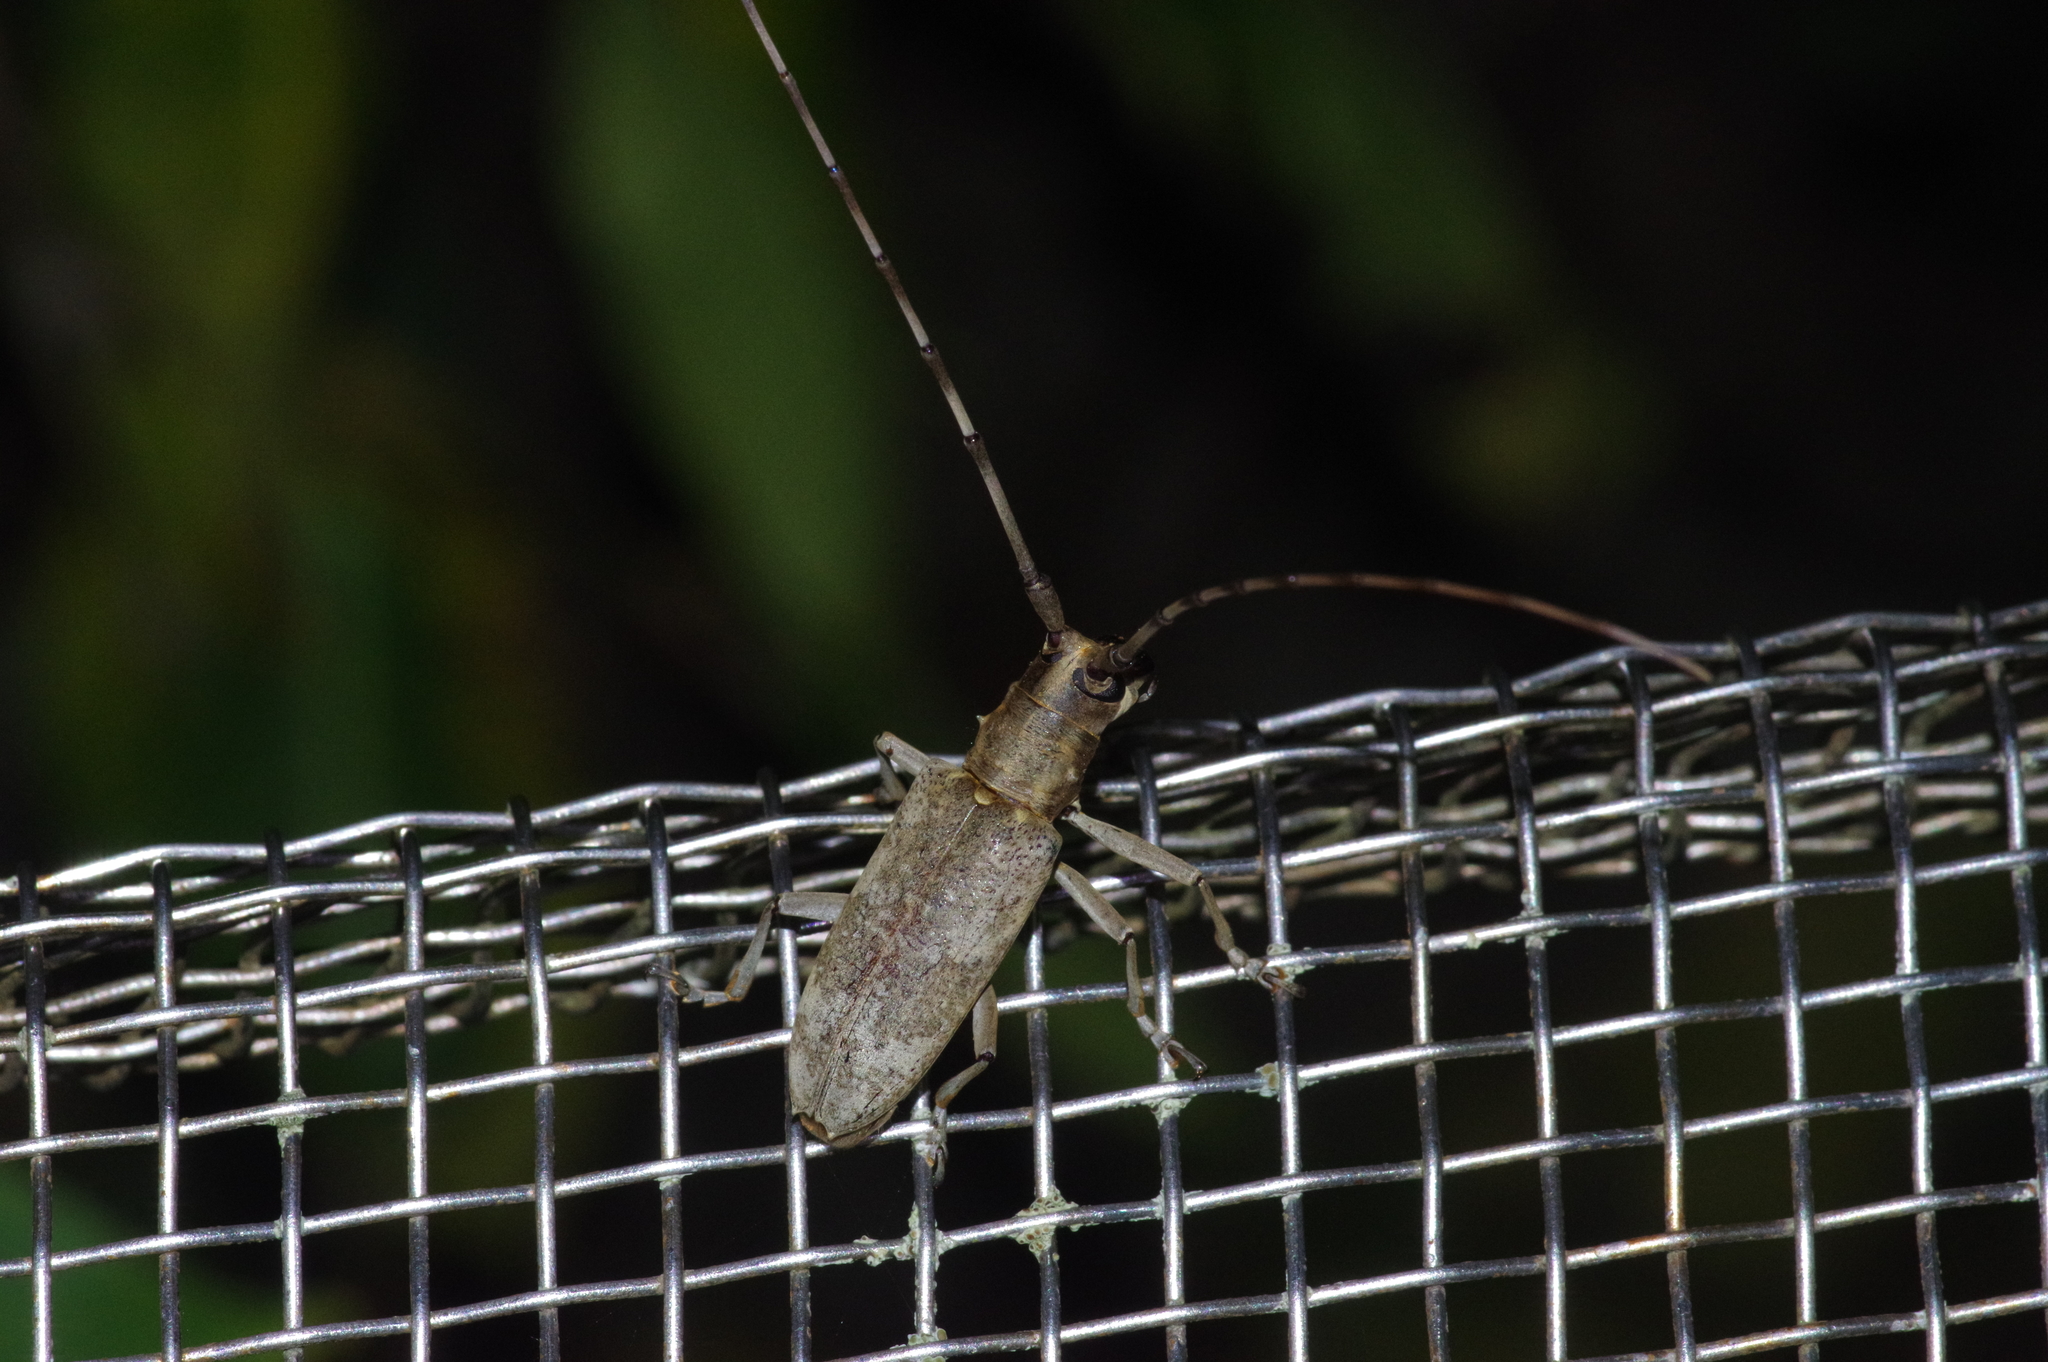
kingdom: Animalia
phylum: Arthropoda
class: Insecta
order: Coleoptera
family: Cerambycidae
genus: Psacothea
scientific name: Psacothea hilaris
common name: Yellow-spotted longicorn beetle
